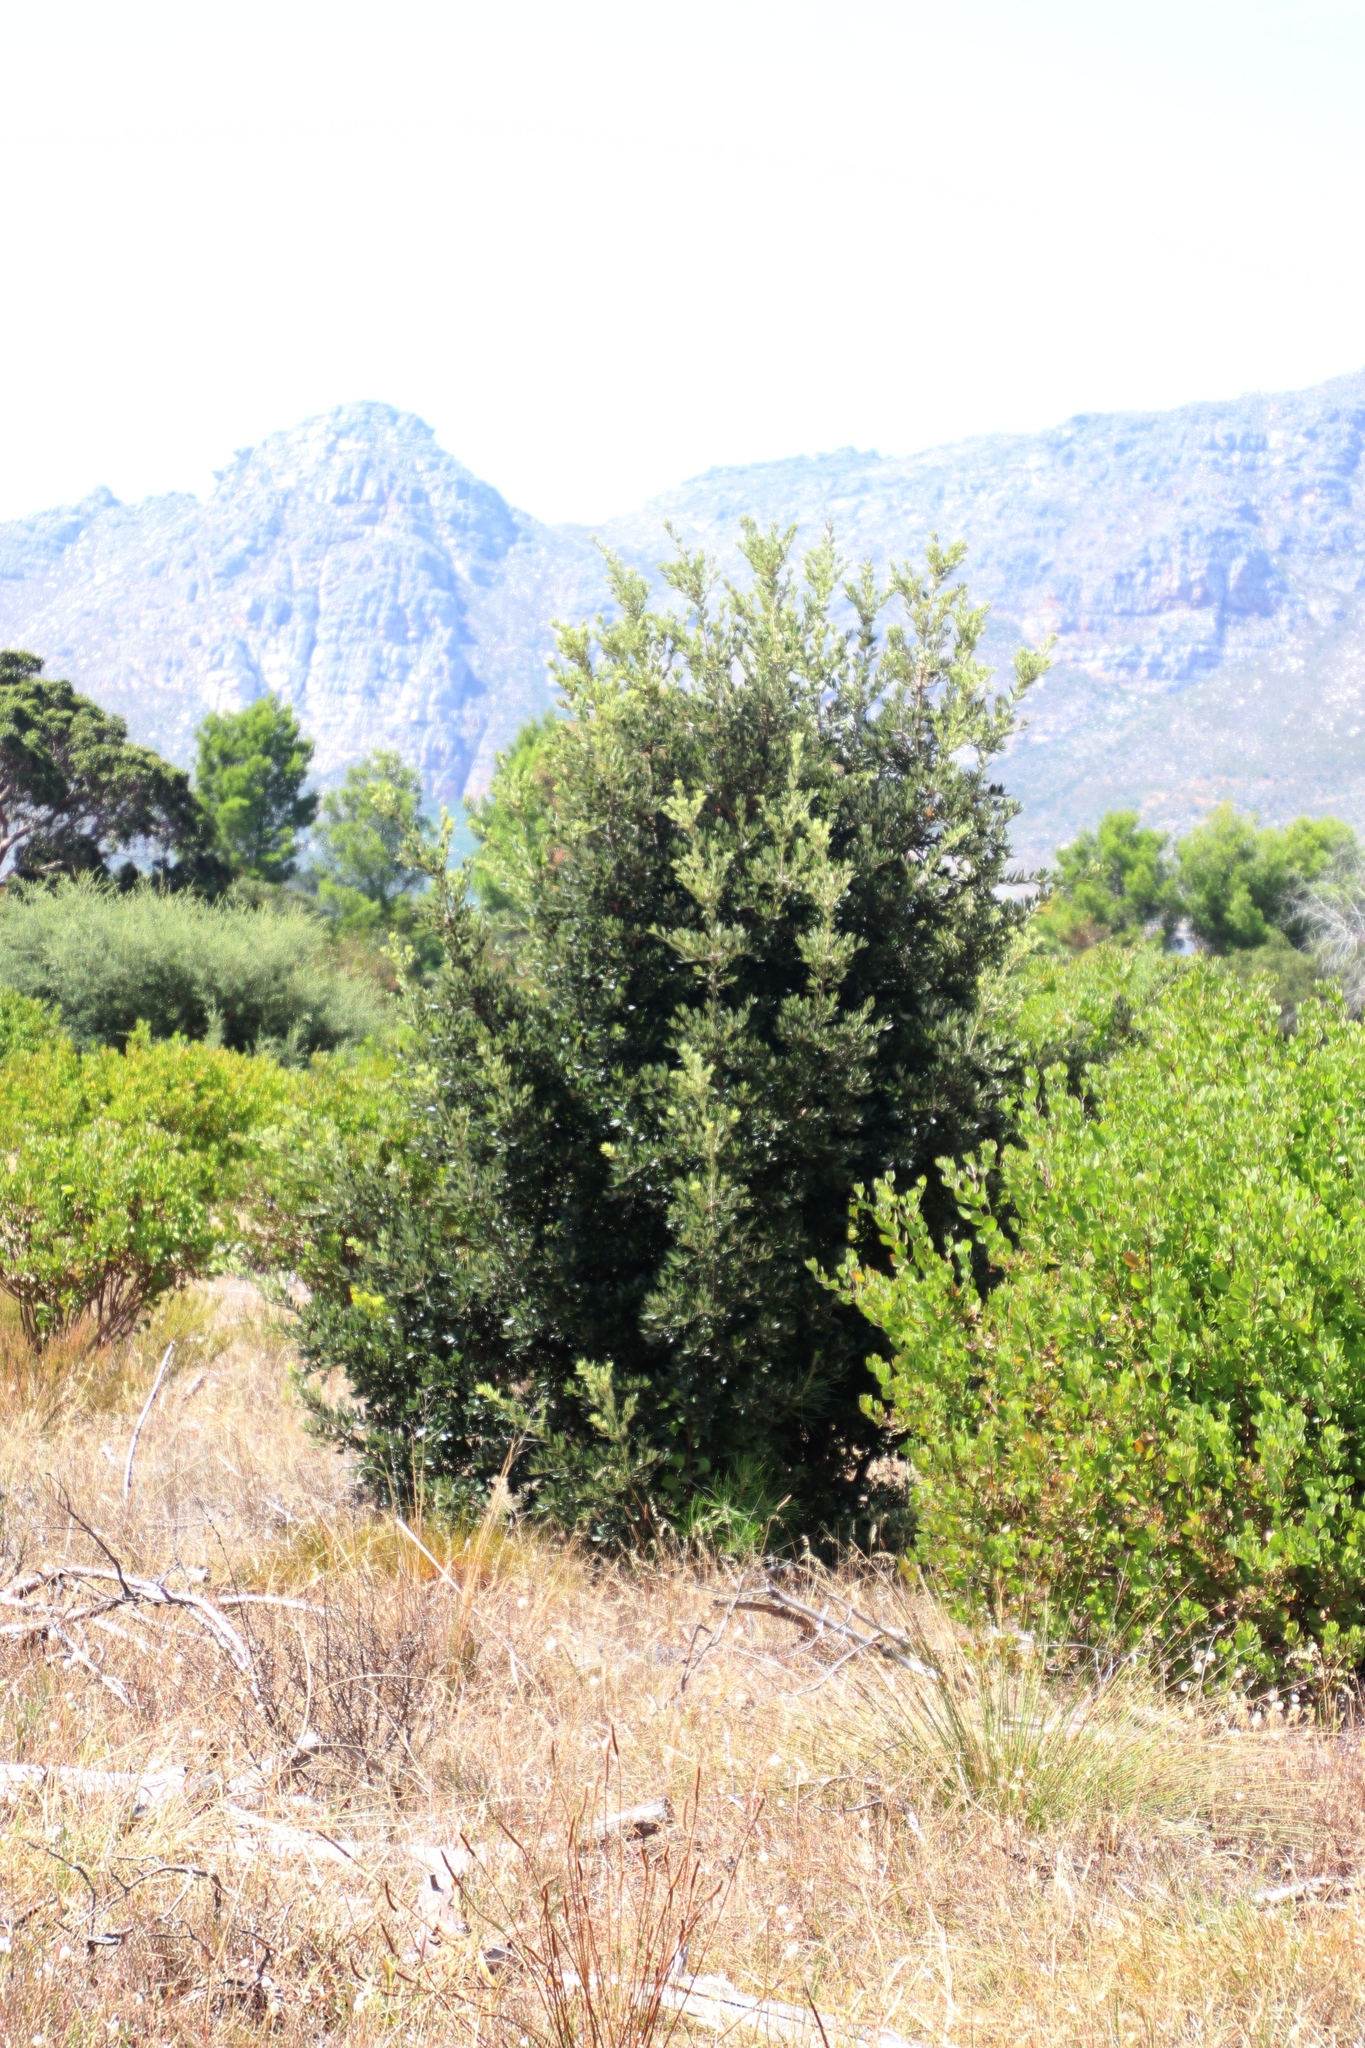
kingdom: Plantae
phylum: Tracheophyta
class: Magnoliopsida
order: Fagales
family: Fagaceae
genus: Quercus
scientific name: Quercus suber
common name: Cork oak
